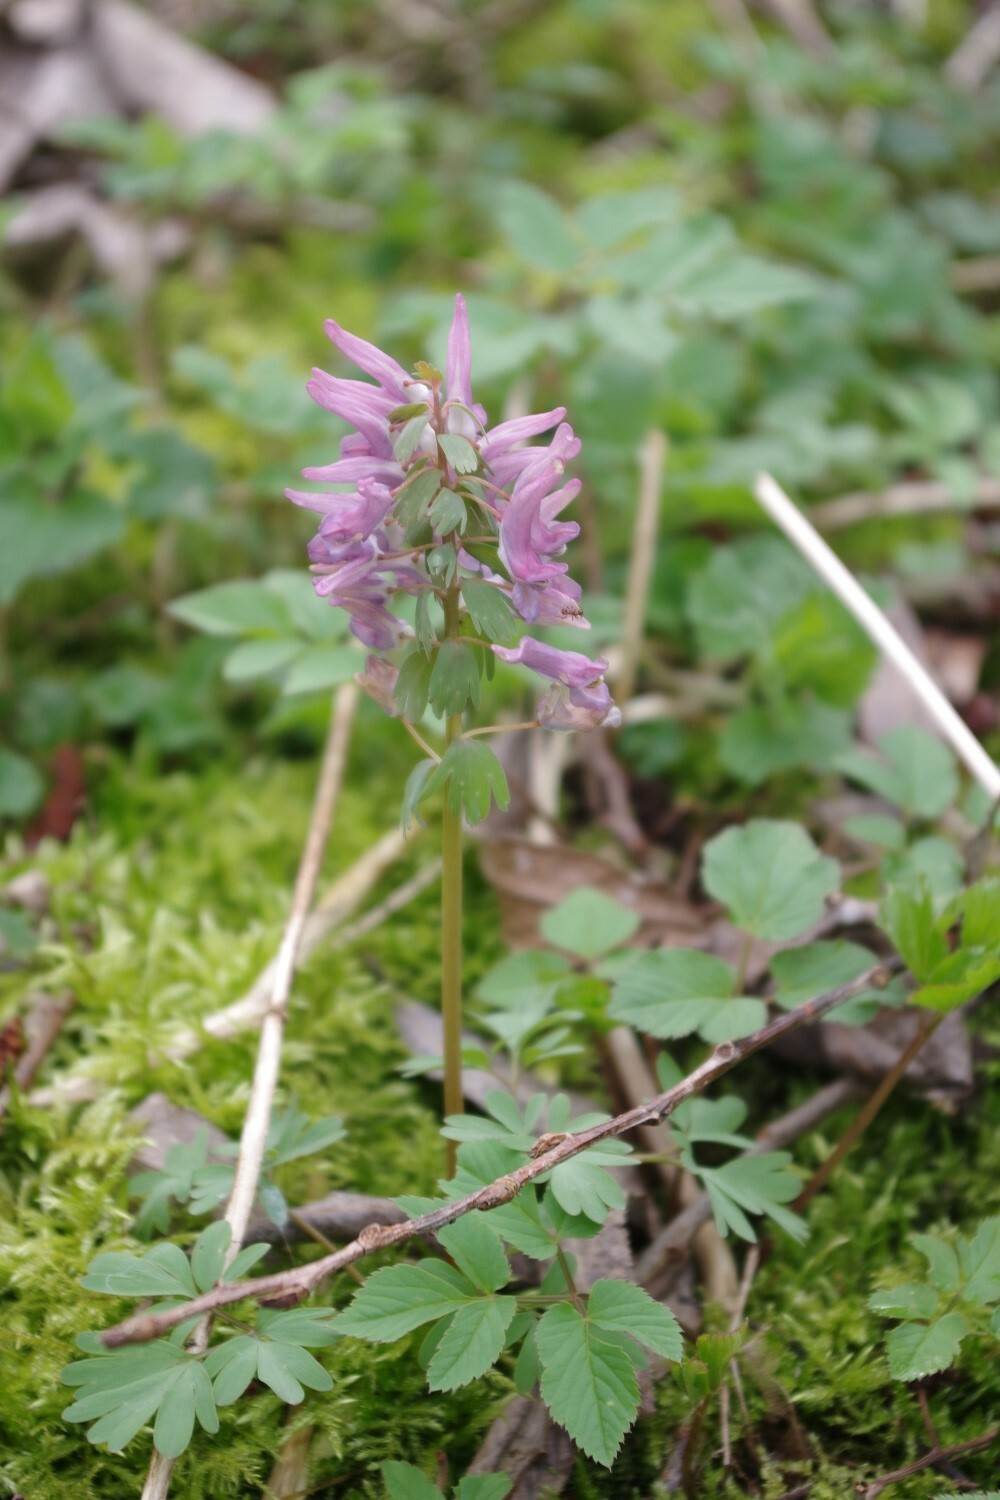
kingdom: Plantae
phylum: Tracheophyta
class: Magnoliopsida
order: Ranunculales
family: Papaveraceae
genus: Corydalis
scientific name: Corydalis solida
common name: Bird-in-a-bush
